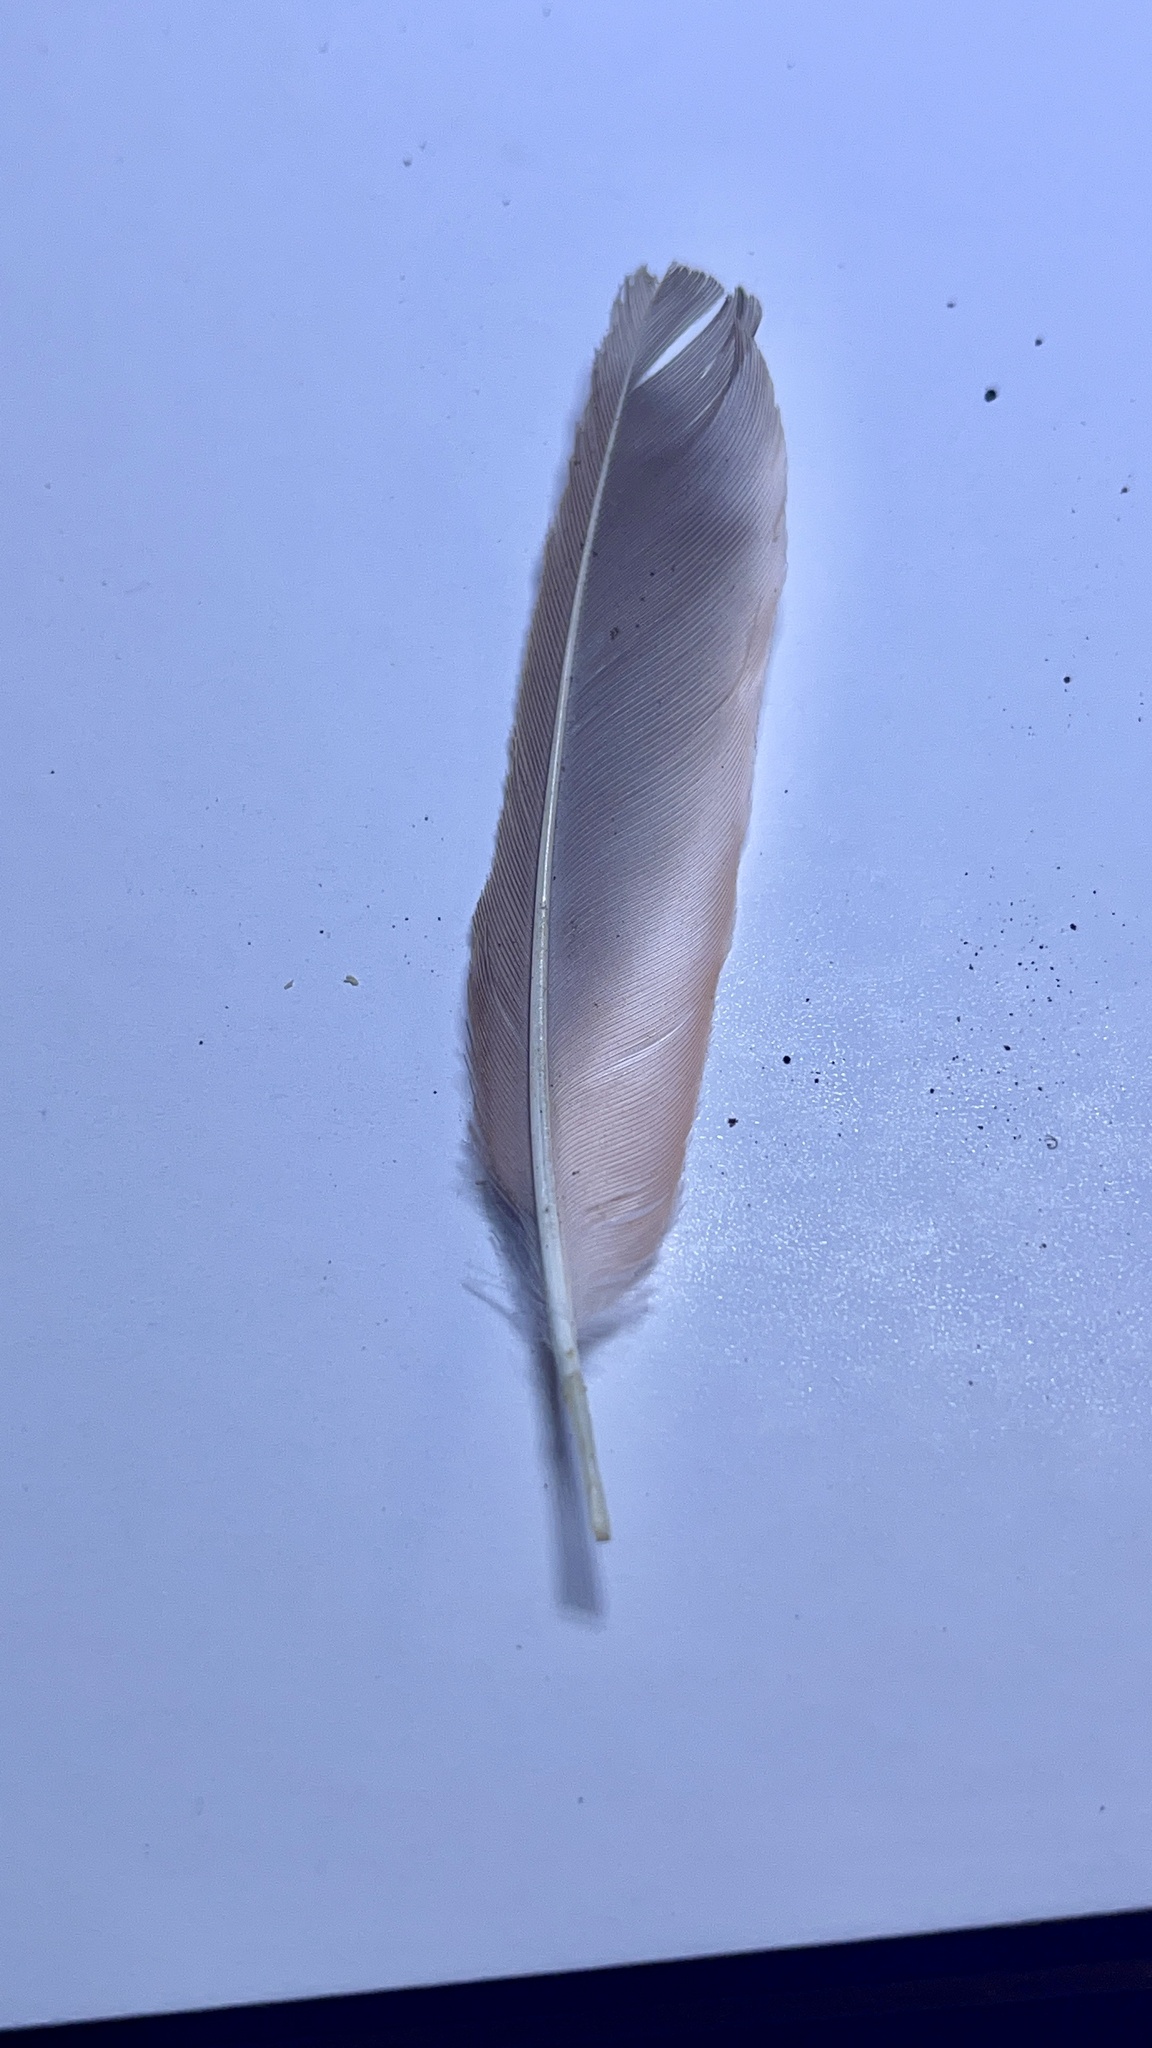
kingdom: Animalia
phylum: Chordata
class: Aves
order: Passeriformes
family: Cardinalidae
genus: Cardinalis
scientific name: Cardinalis cardinalis
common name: Northern cardinal
